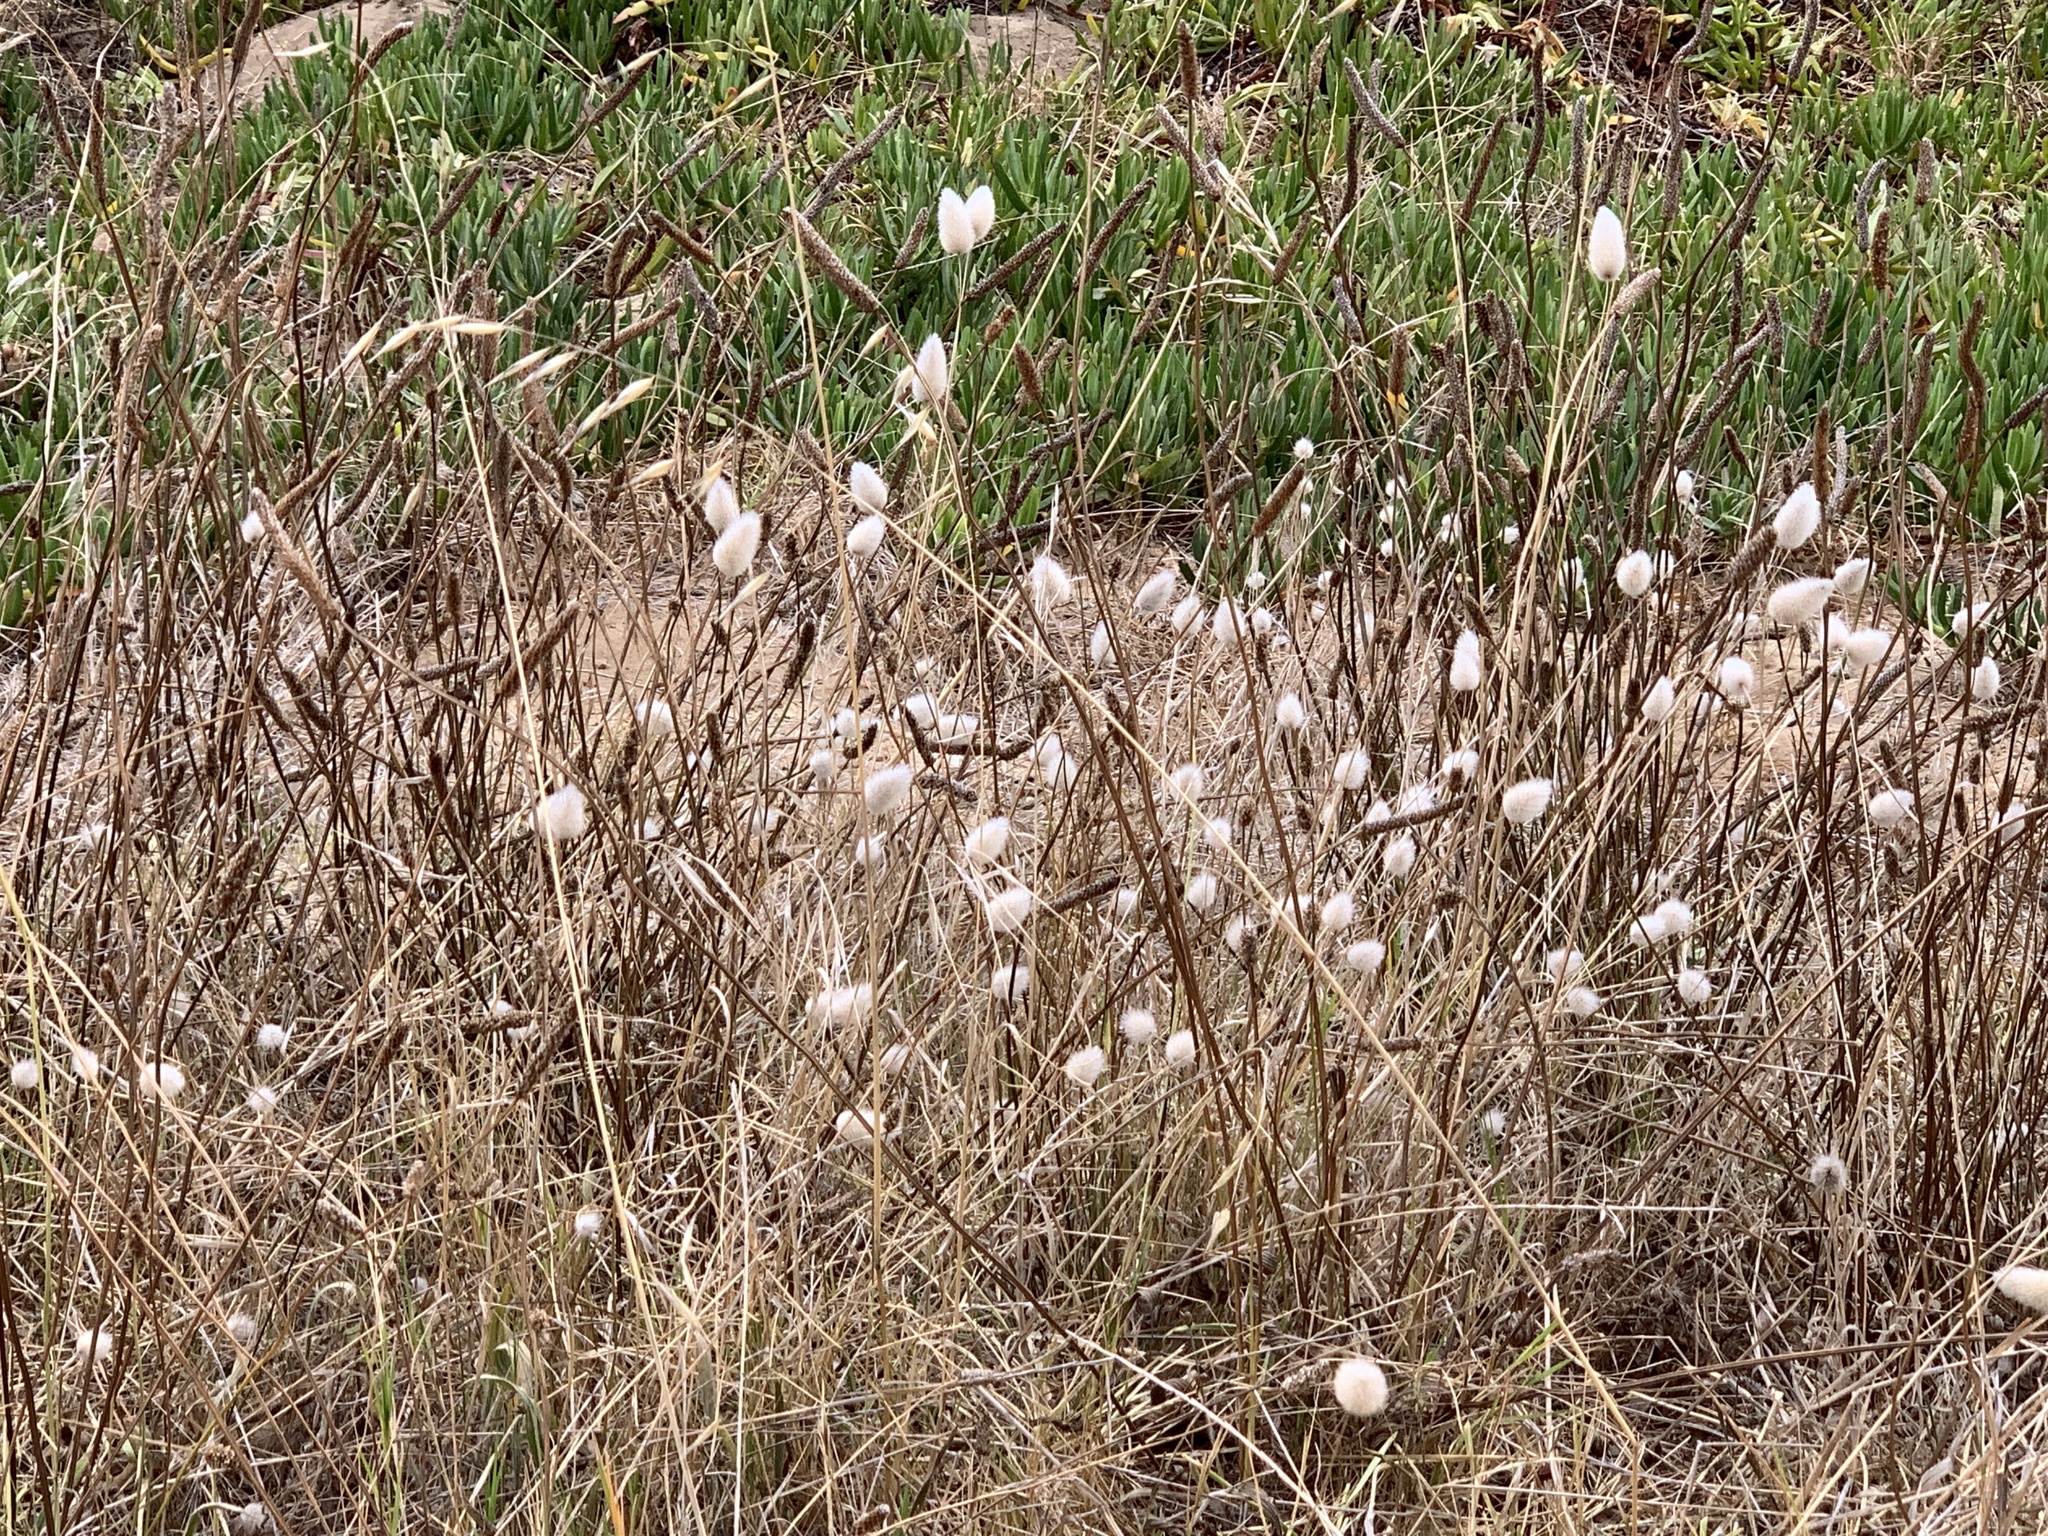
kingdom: Plantae
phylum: Tracheophyta
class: Liliopsida
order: Poales
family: Poaceae
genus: Lagurus
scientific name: Lagurus ovatus
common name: Hare's-tail
